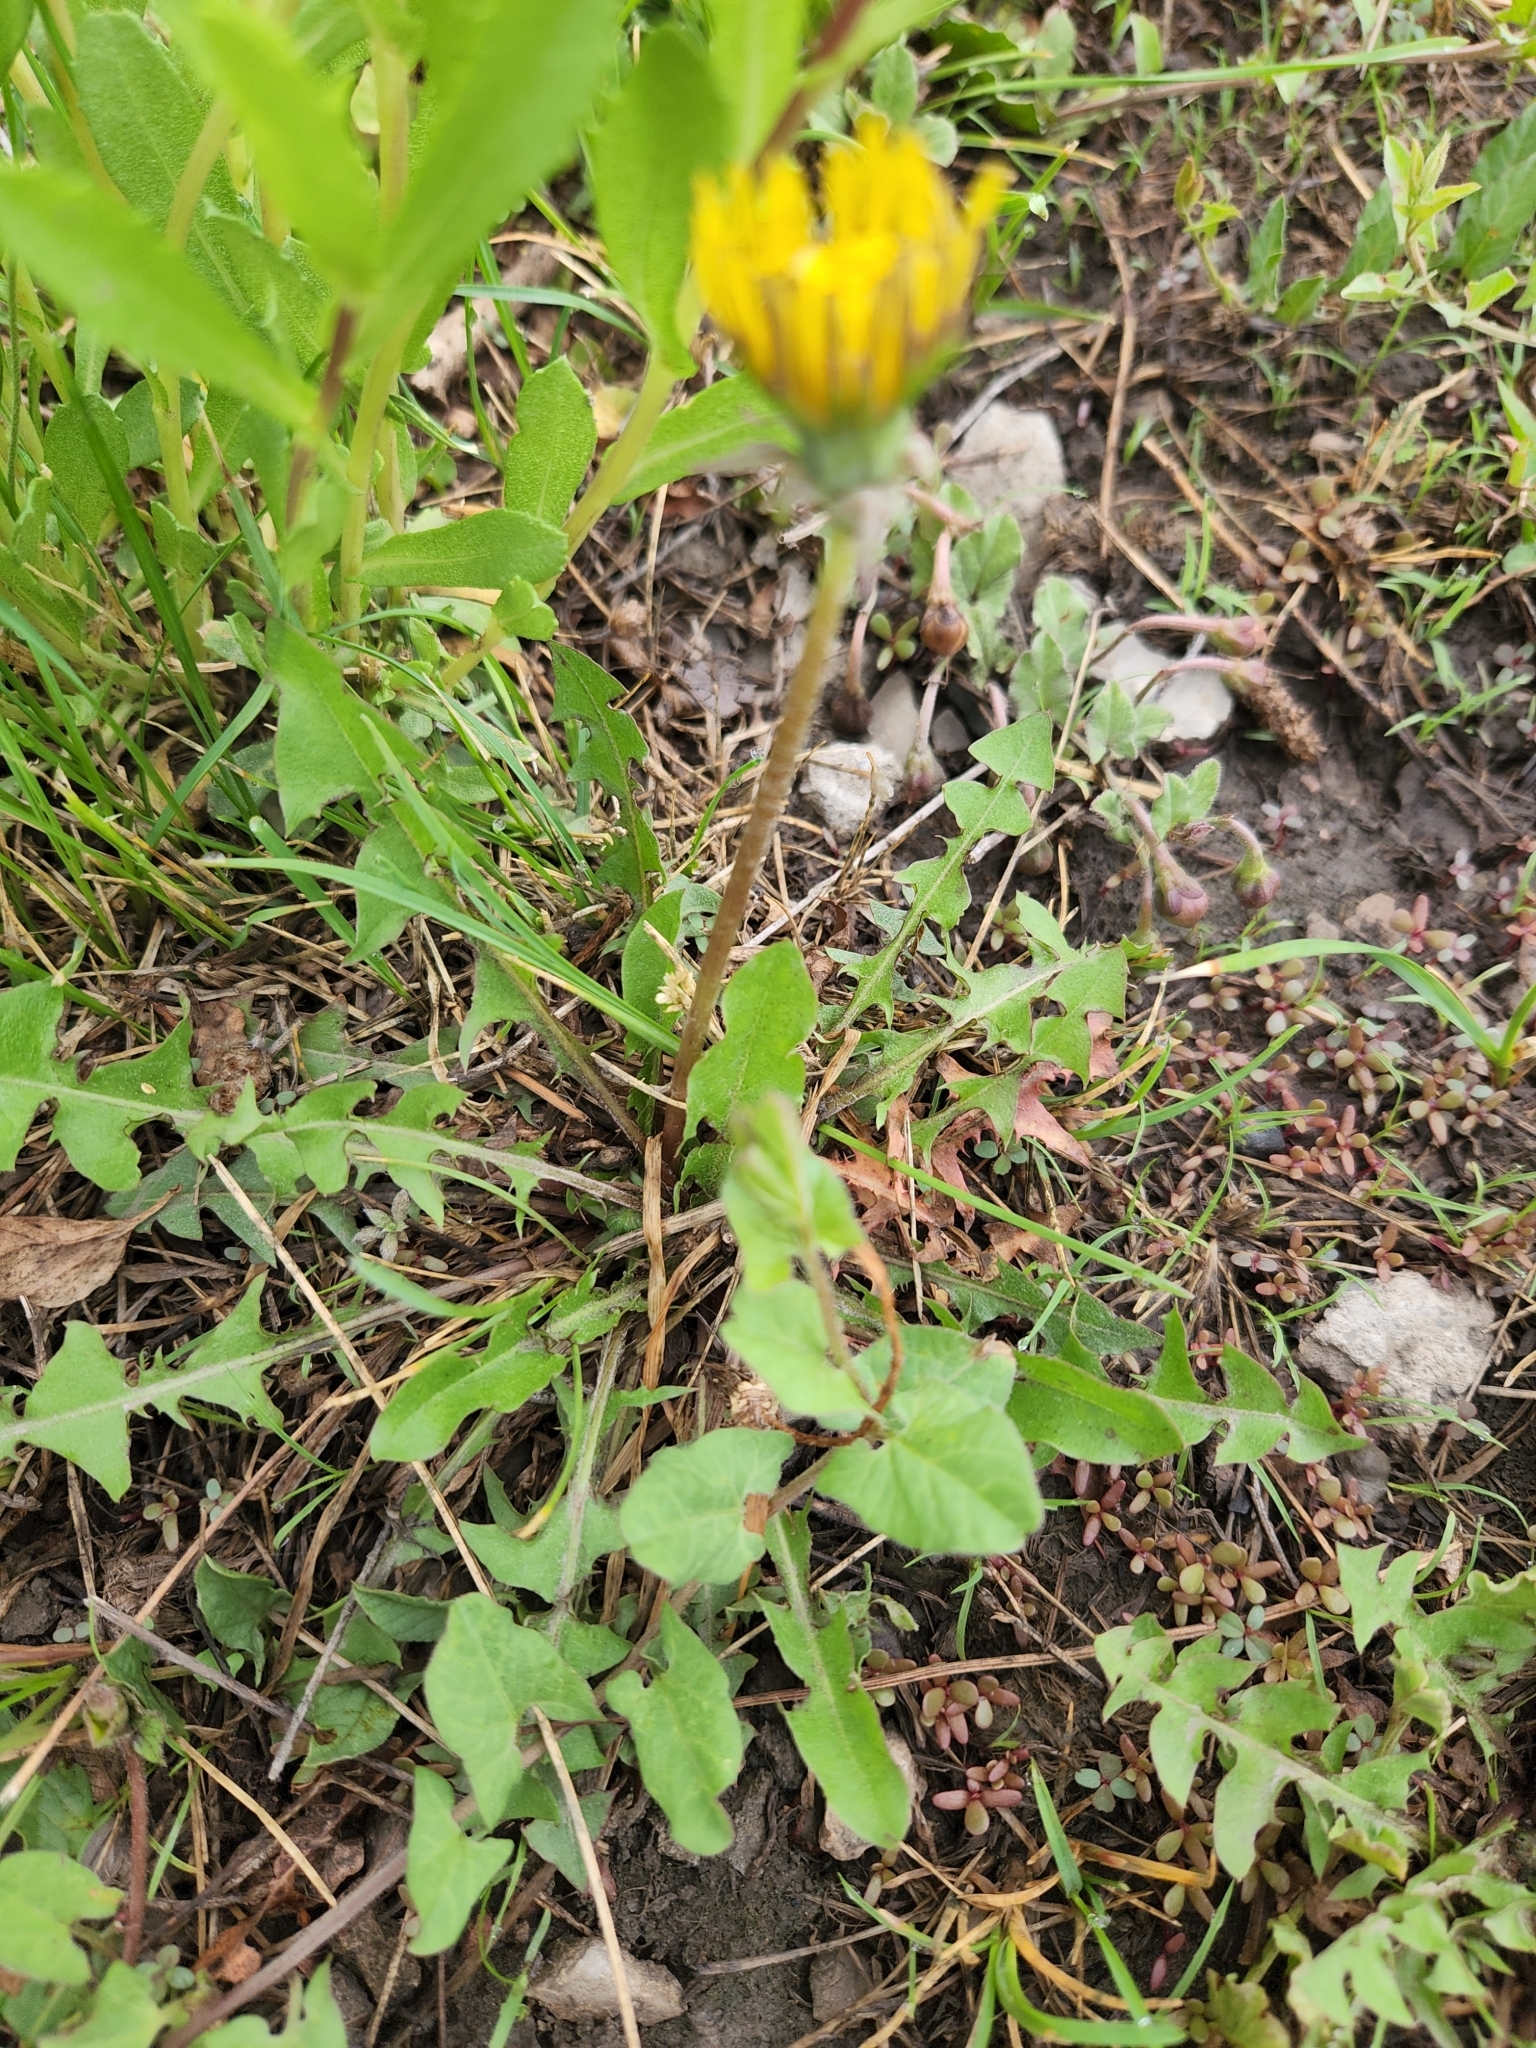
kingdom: Plantae
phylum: Tracheophyta
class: Magnoliopsida
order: Asterales
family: Asteraceae
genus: Taraxacum
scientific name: Taraxacum officinale
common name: Common dandelion
